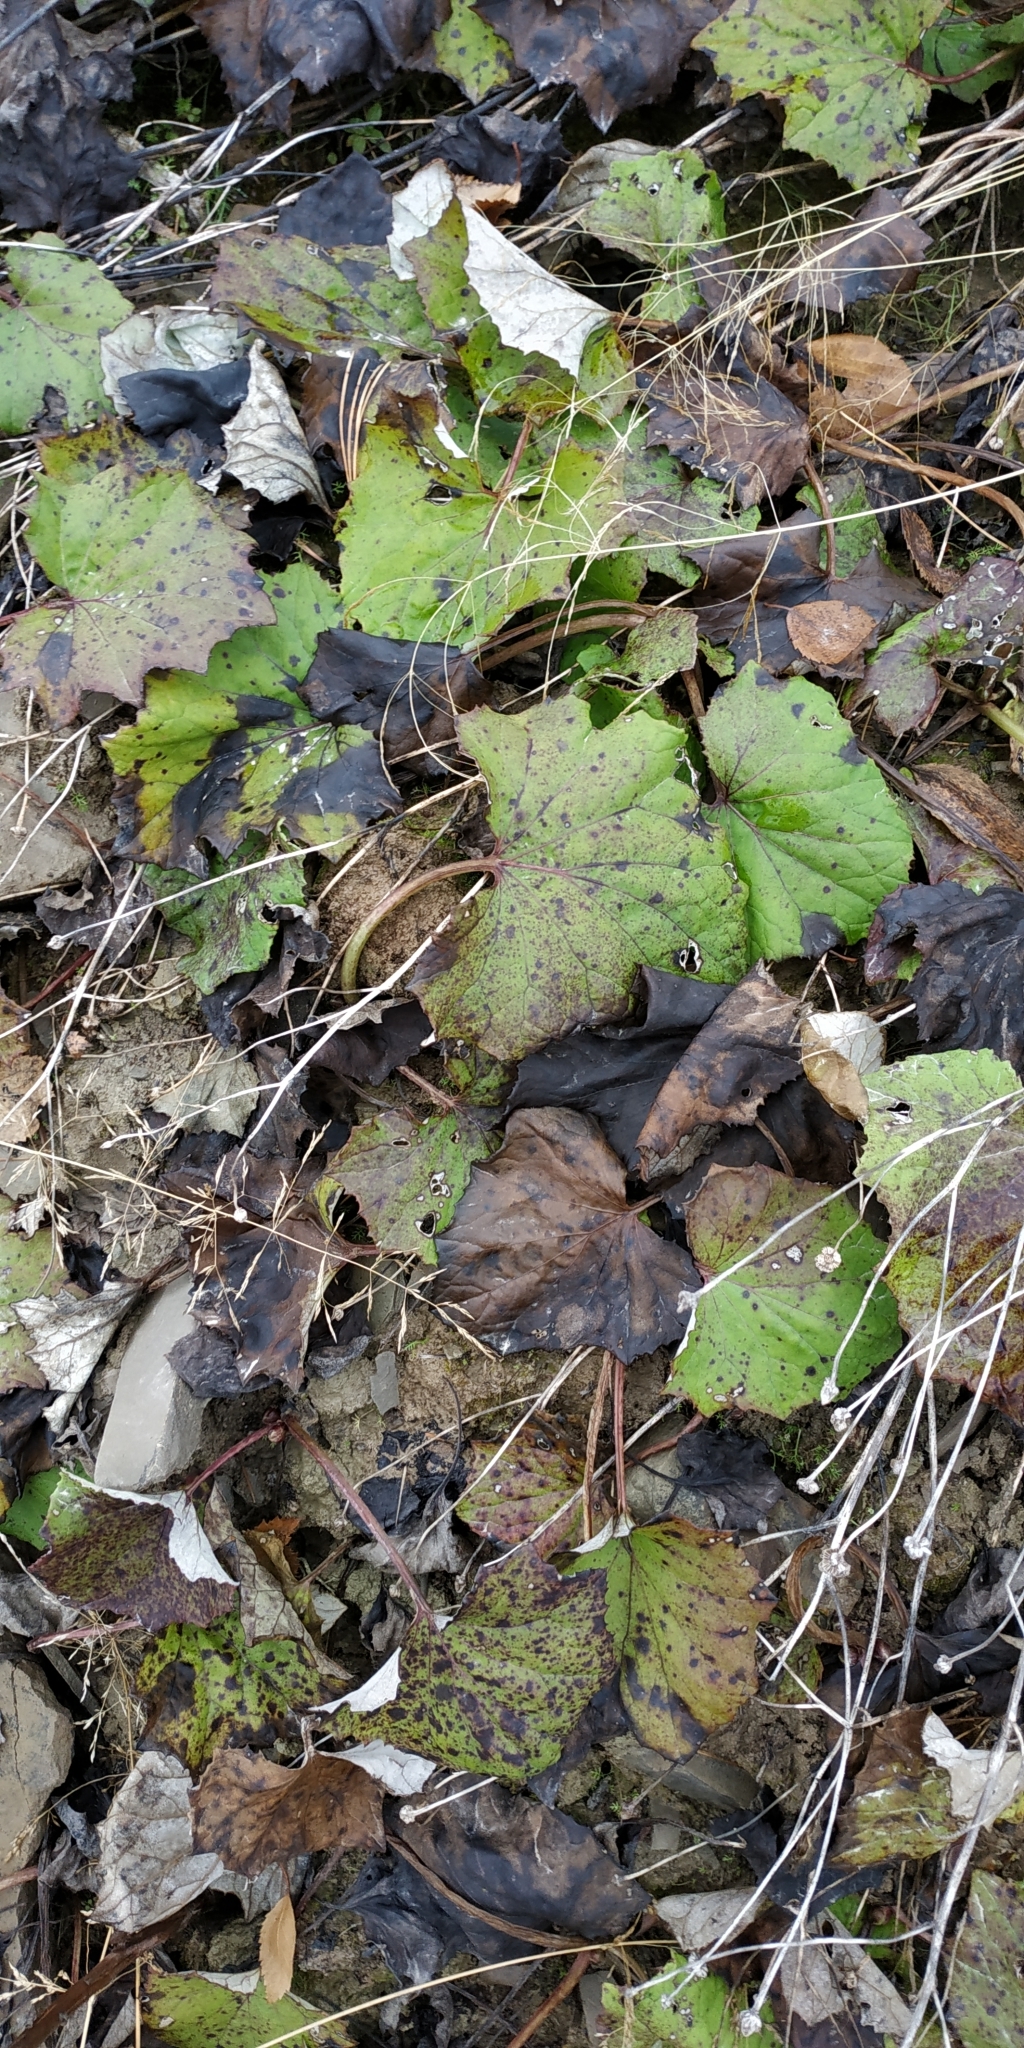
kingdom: Plantae
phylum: Tracheophyta
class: Magnoliopsida
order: Asterales
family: Asteraceae
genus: Tussilago
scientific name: Tussilago farfara
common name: Coltsfoot
